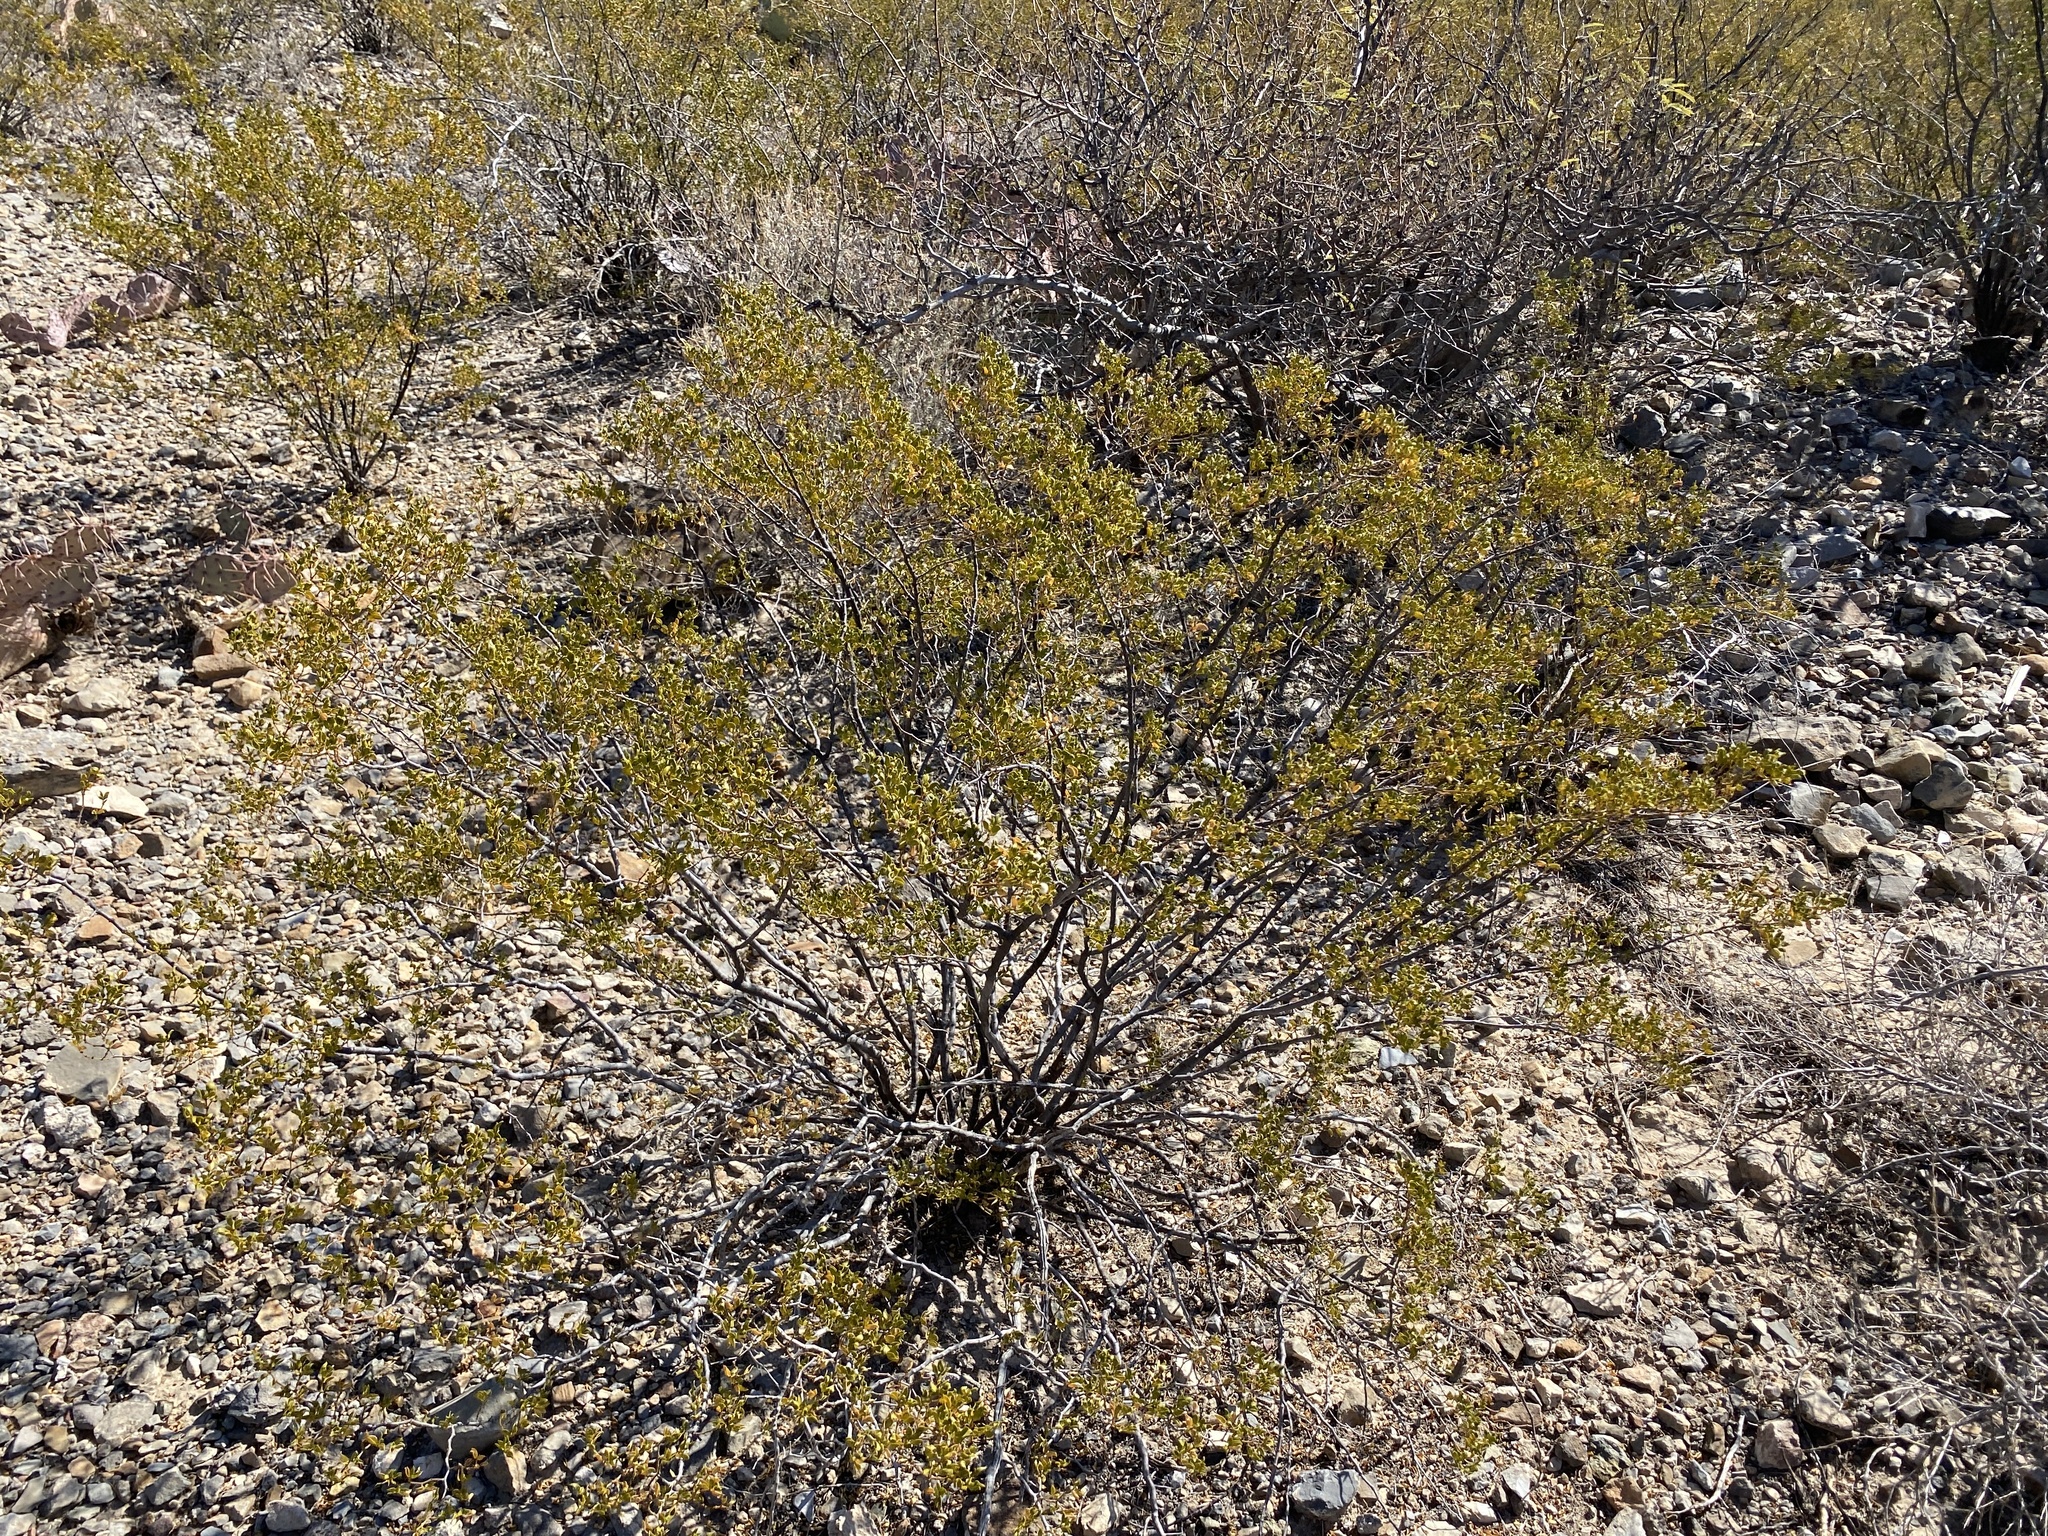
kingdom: Plantae
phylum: Tracheophyta
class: Magnoliopsida
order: Zygophyllales
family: Zygophyllaceae
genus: Larrea
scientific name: Larrea tridentata
